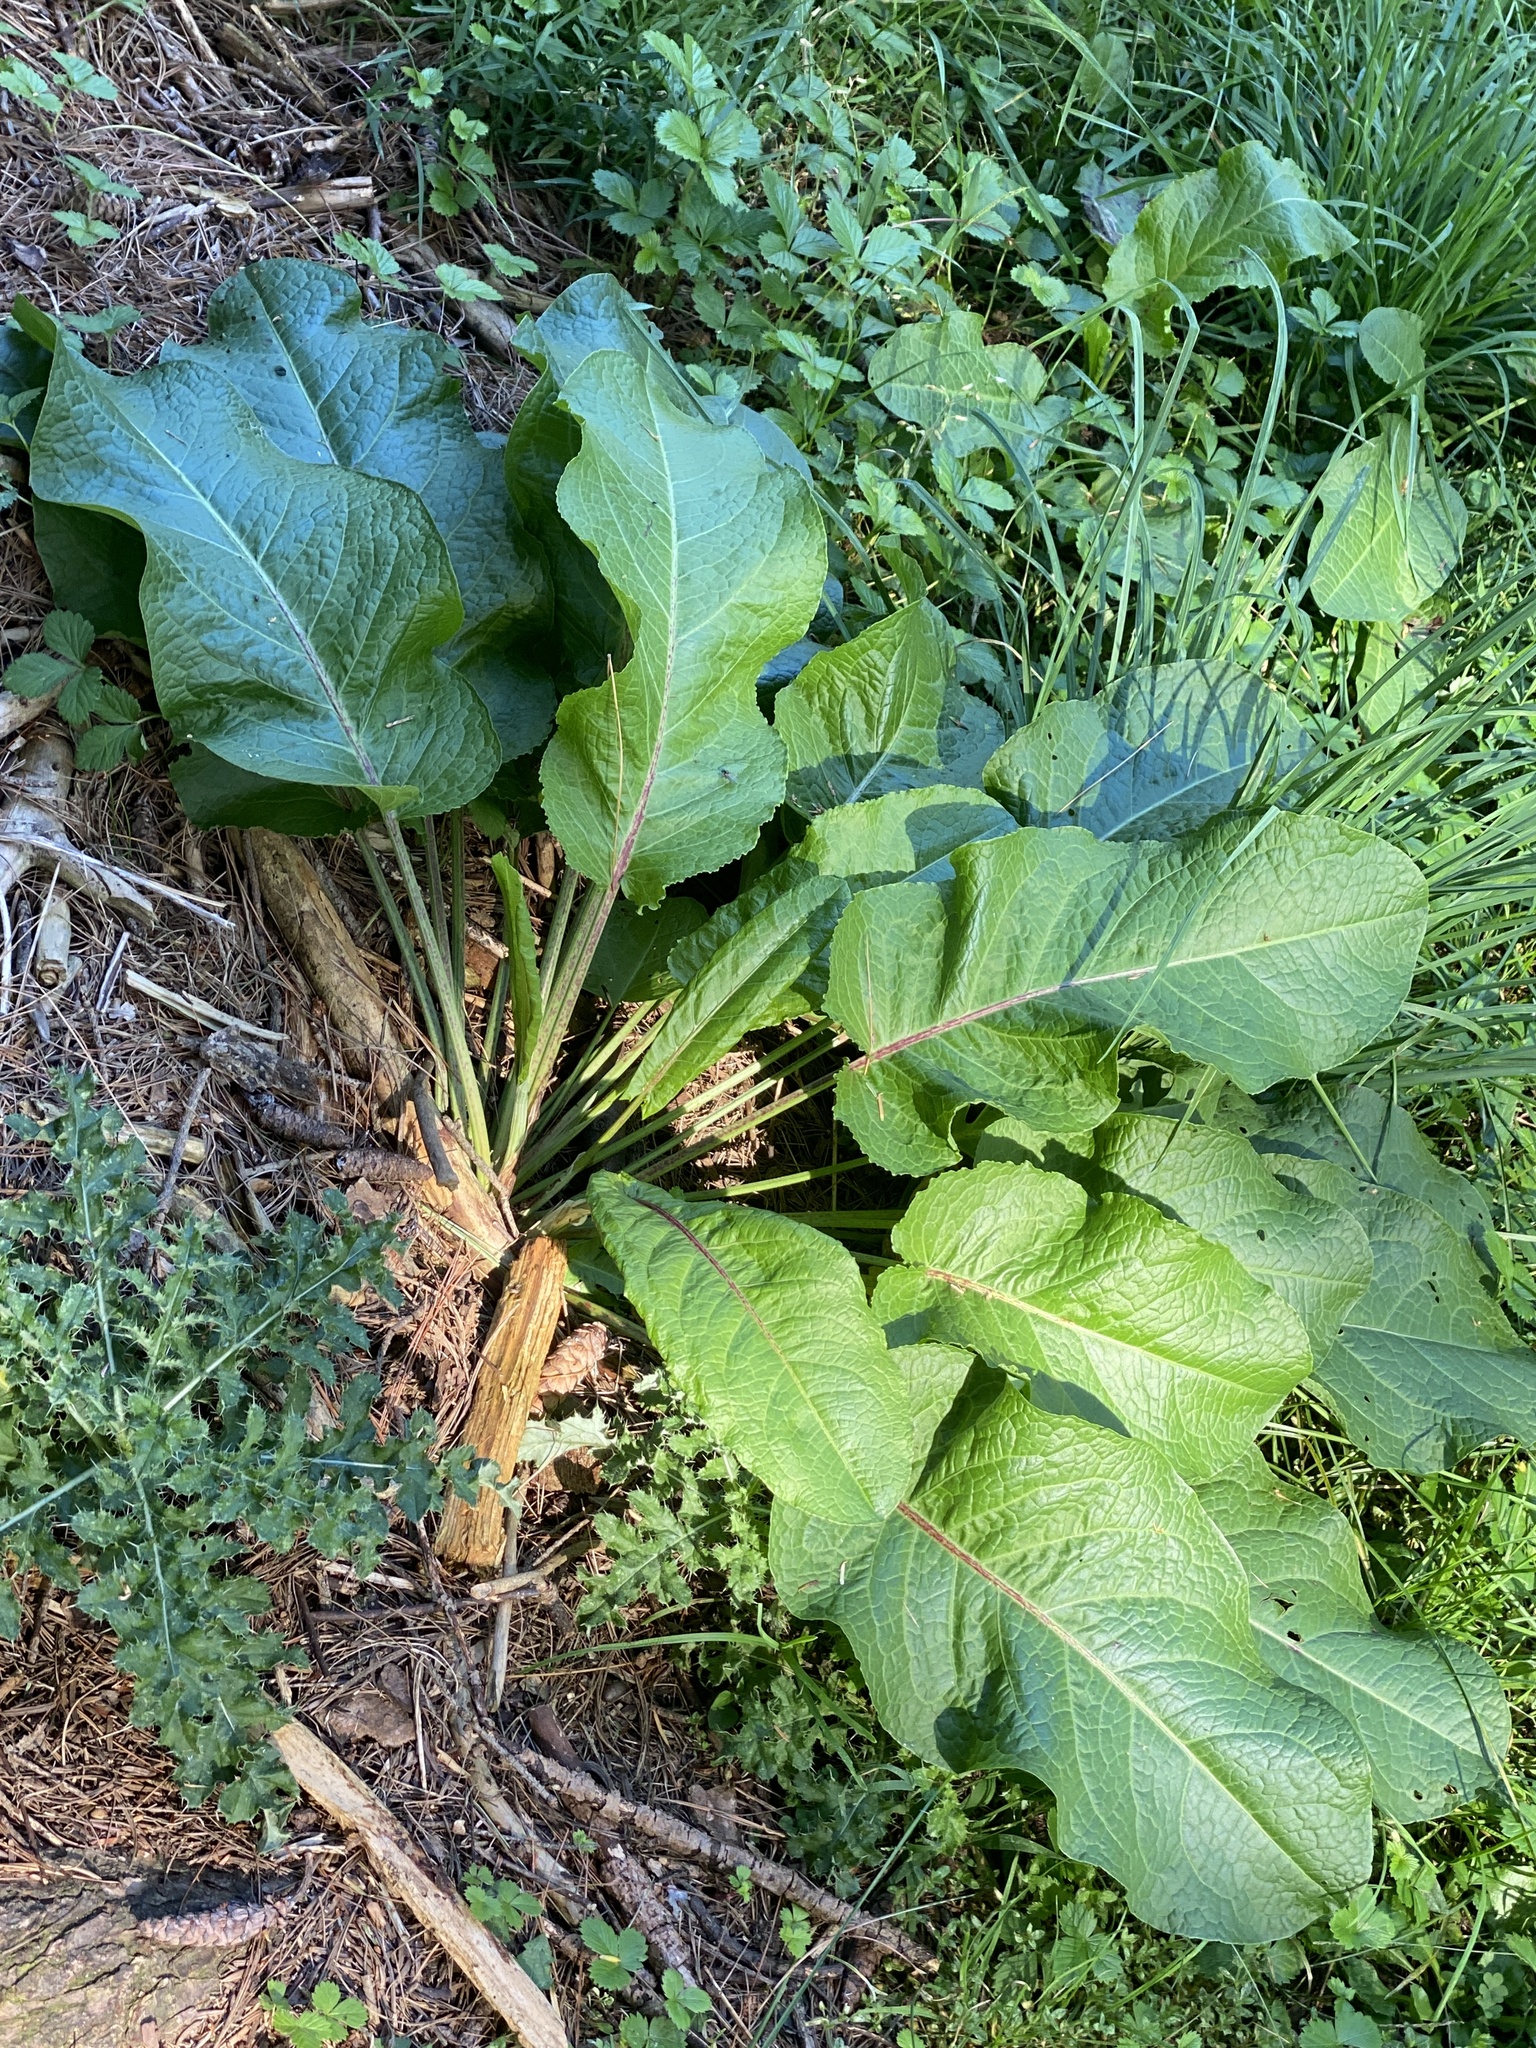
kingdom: Plantae
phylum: Tracheophyta
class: Magnoliopsida
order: Caryophyllales
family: Polygonaceae
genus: Rumex
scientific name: Rumex obtusifolius
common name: Bitter dock
